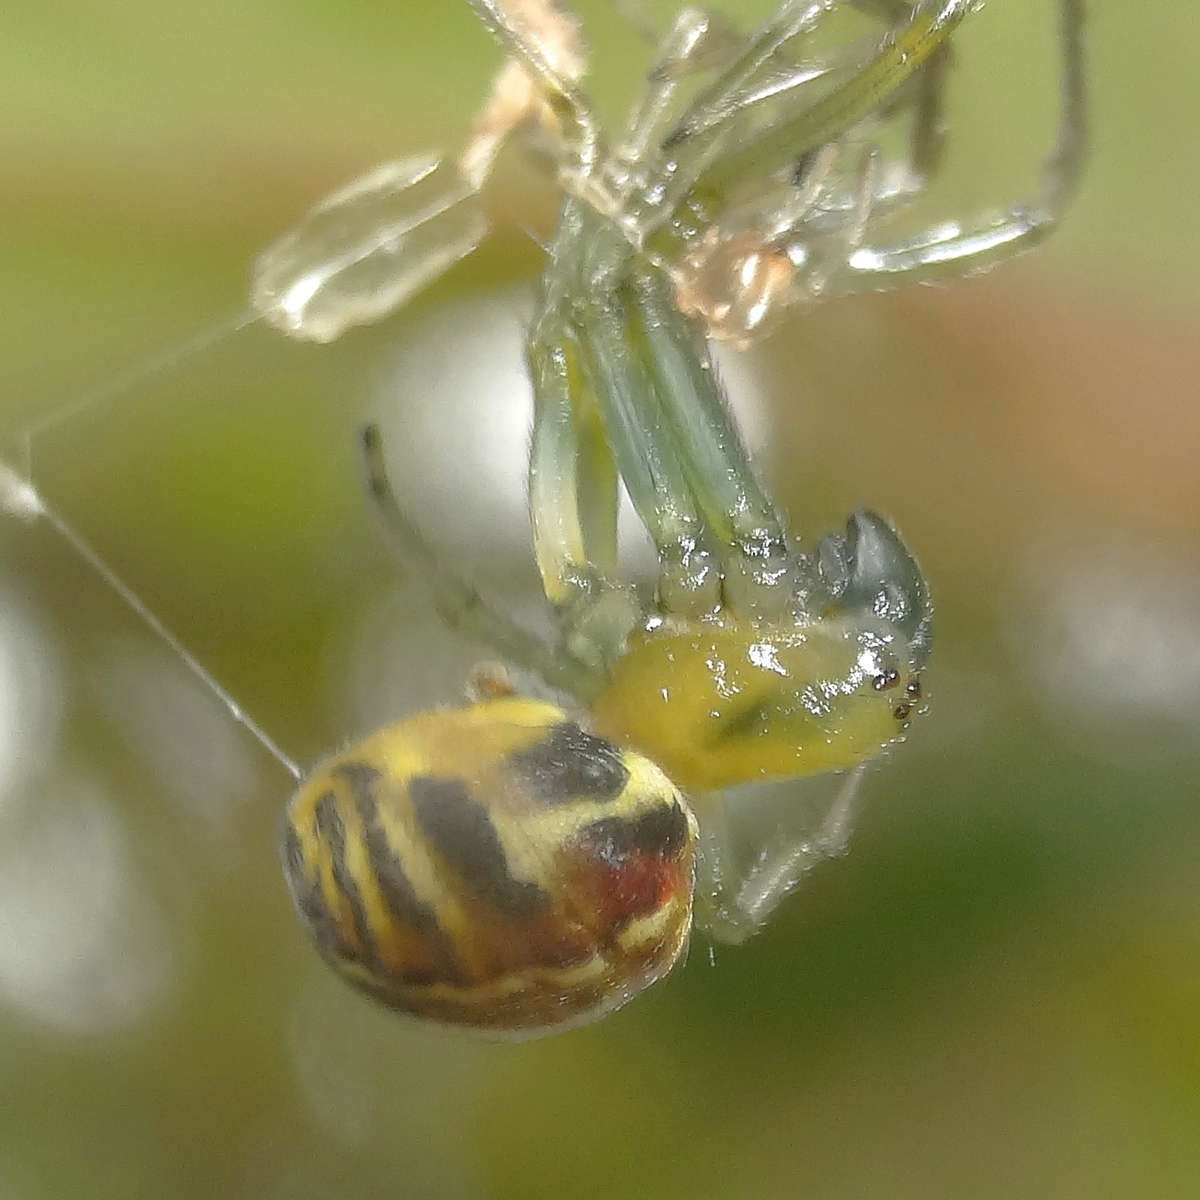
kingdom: Animalia
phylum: Arthropoda
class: Arachnida
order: Araneae
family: Araneidae
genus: Deliochus
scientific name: Deliochus pulchra
